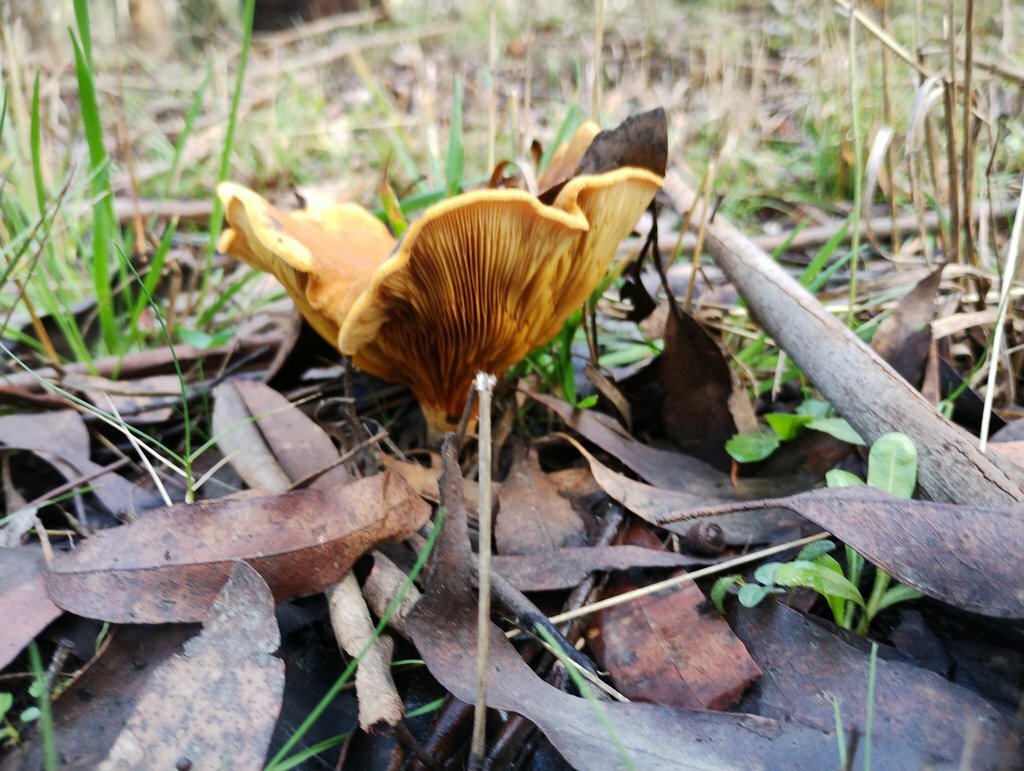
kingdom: Fungi
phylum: Basidiomycota
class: Agaricomycetes
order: Boletales
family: Serpulaceae
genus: Austropaxillus
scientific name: Austropaxillus infundibuliformis
